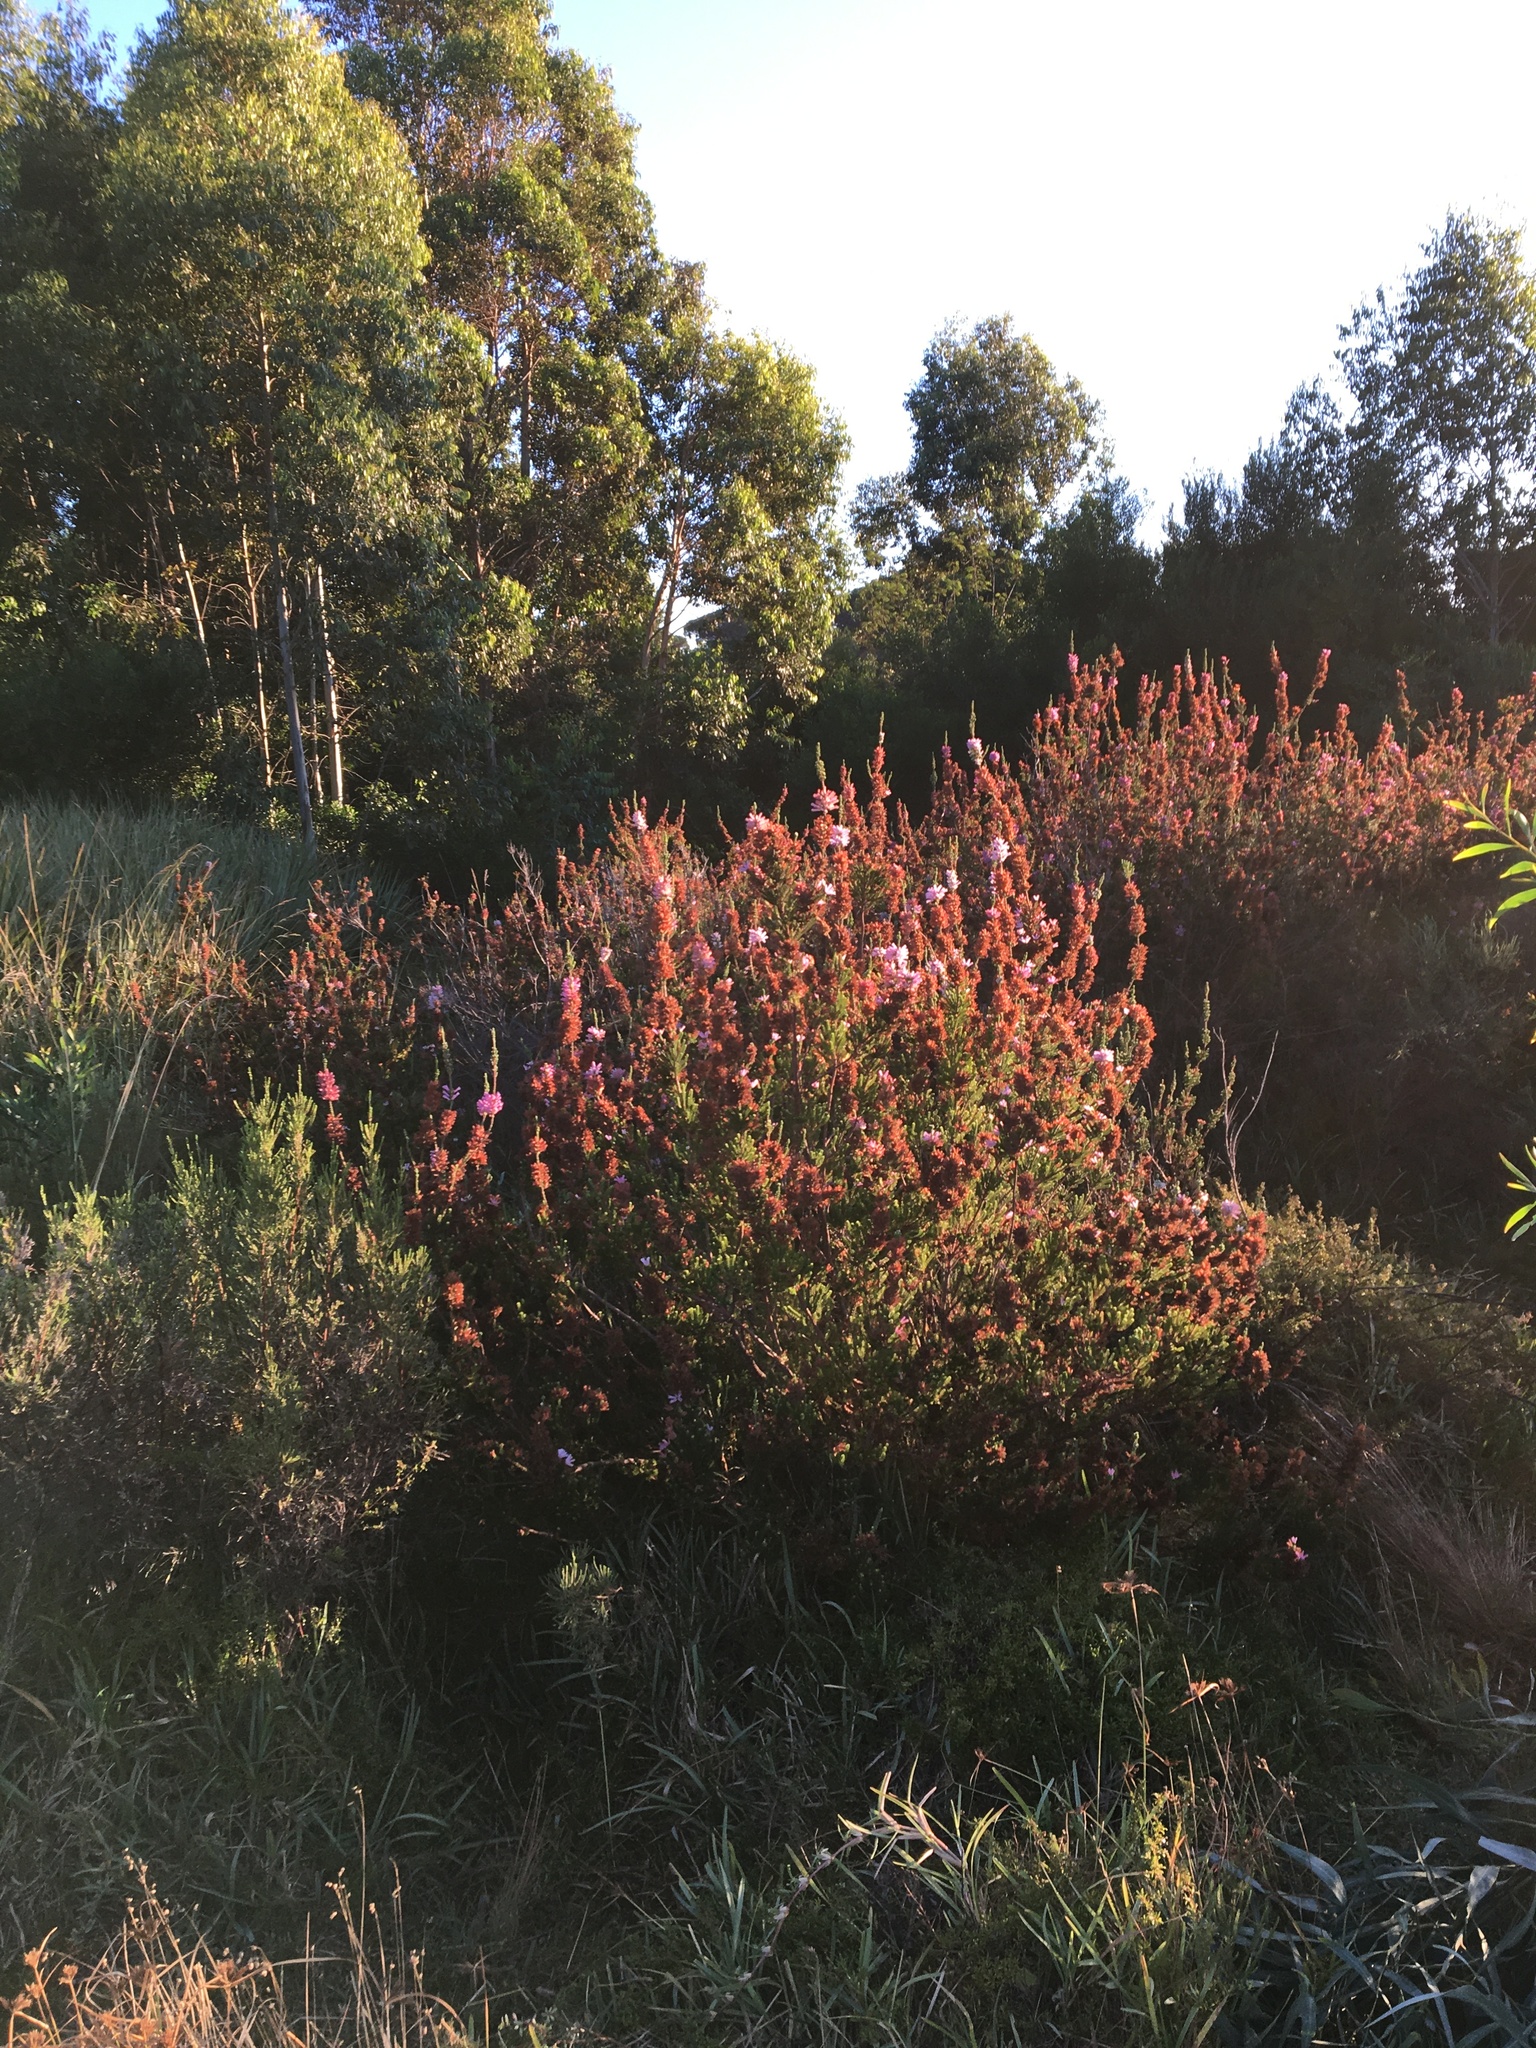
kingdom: Plantae
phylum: Tracheophyta
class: Magnoliopsida
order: Ericales
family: Ericaceae
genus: Erica
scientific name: Erica verticillata
